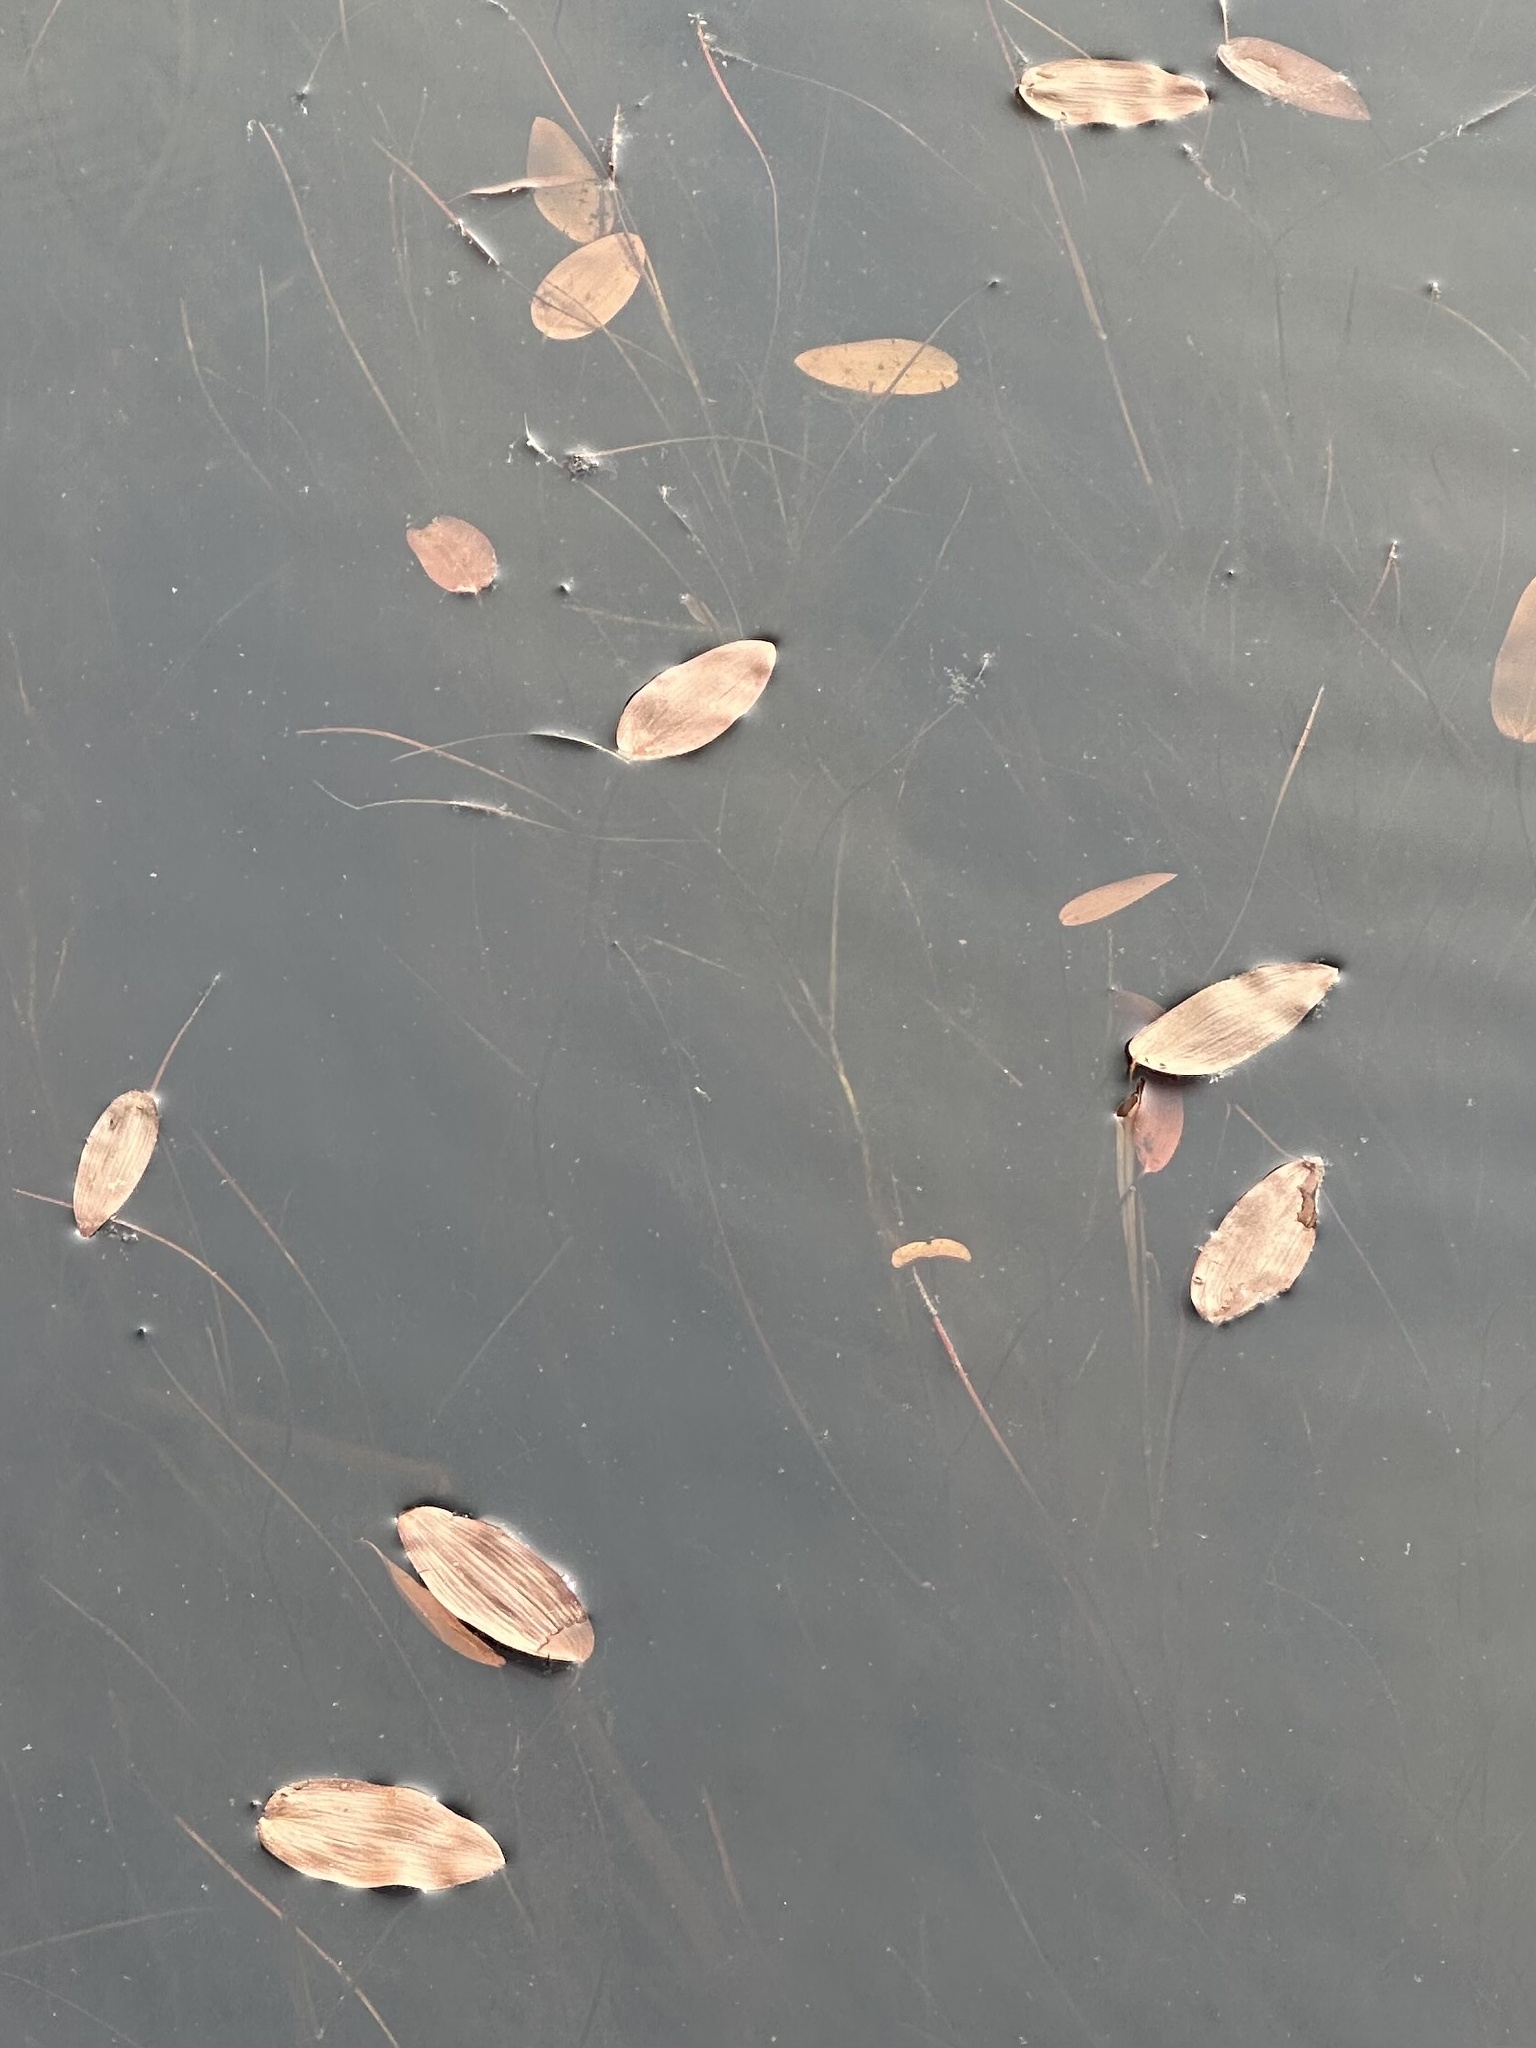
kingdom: Plantae
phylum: Tracheophyta
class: Liliopsida
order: Alismatales
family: Potamogetonaceae
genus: Potamogeton
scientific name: Potamogeton natans
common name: Broad-leaved pondweed
